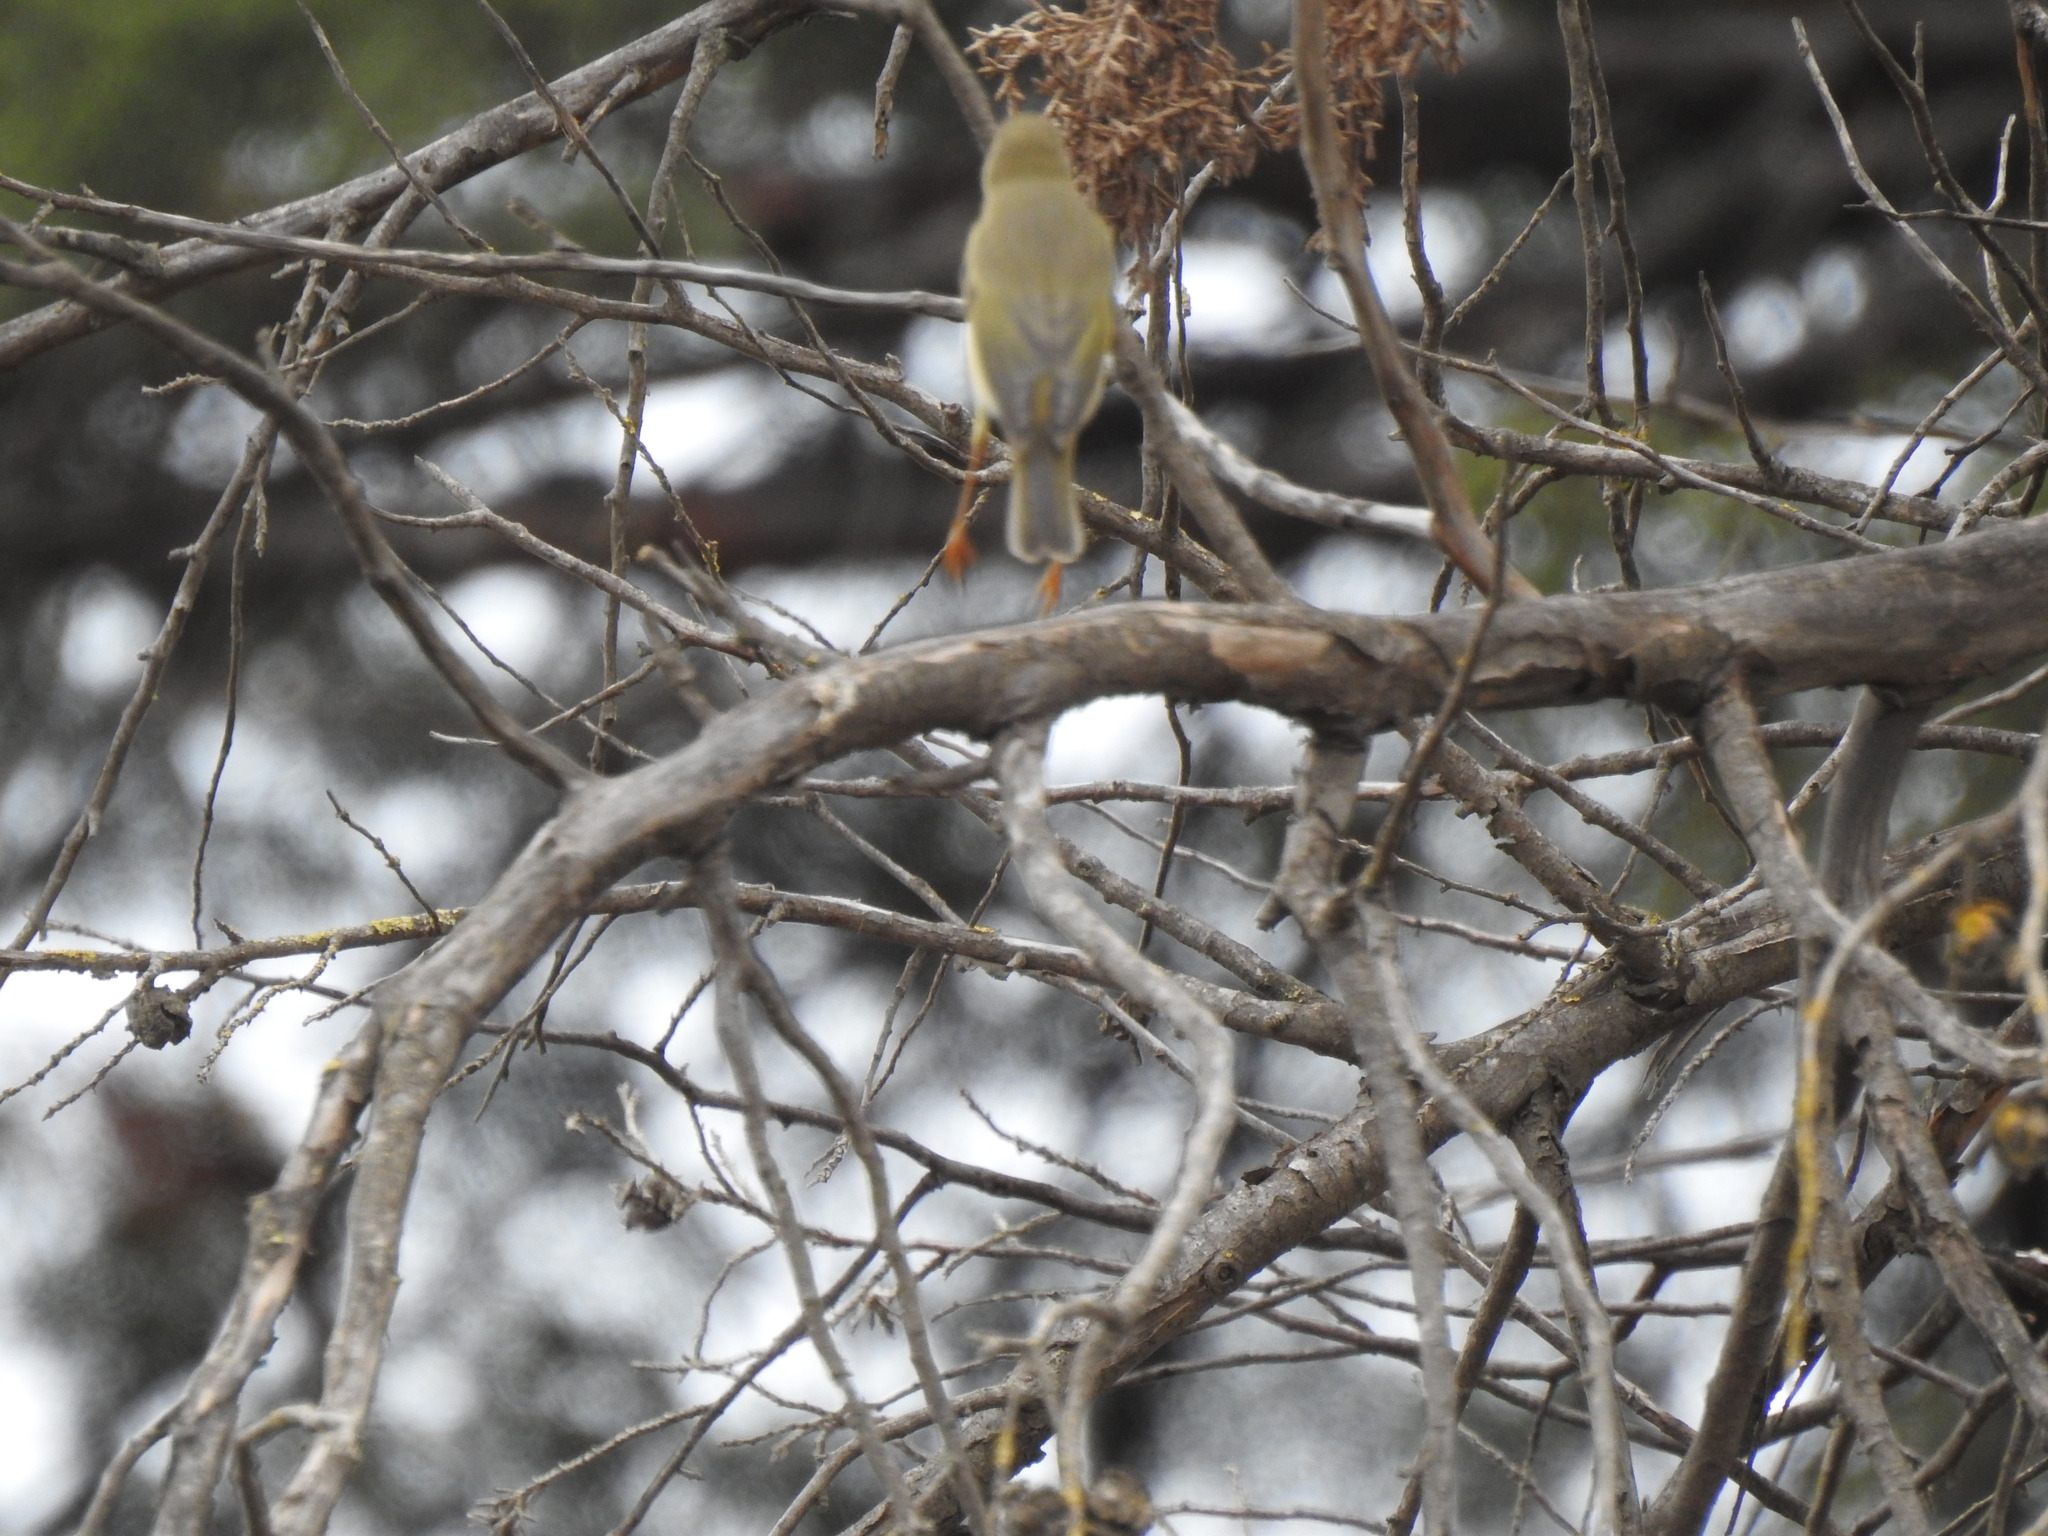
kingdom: Animalia
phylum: Chordata
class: Aves
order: Passeriformes
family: Phylloscopidae
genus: Phylloscopus
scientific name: Phylloscopus trochilus
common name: Willow warbler
